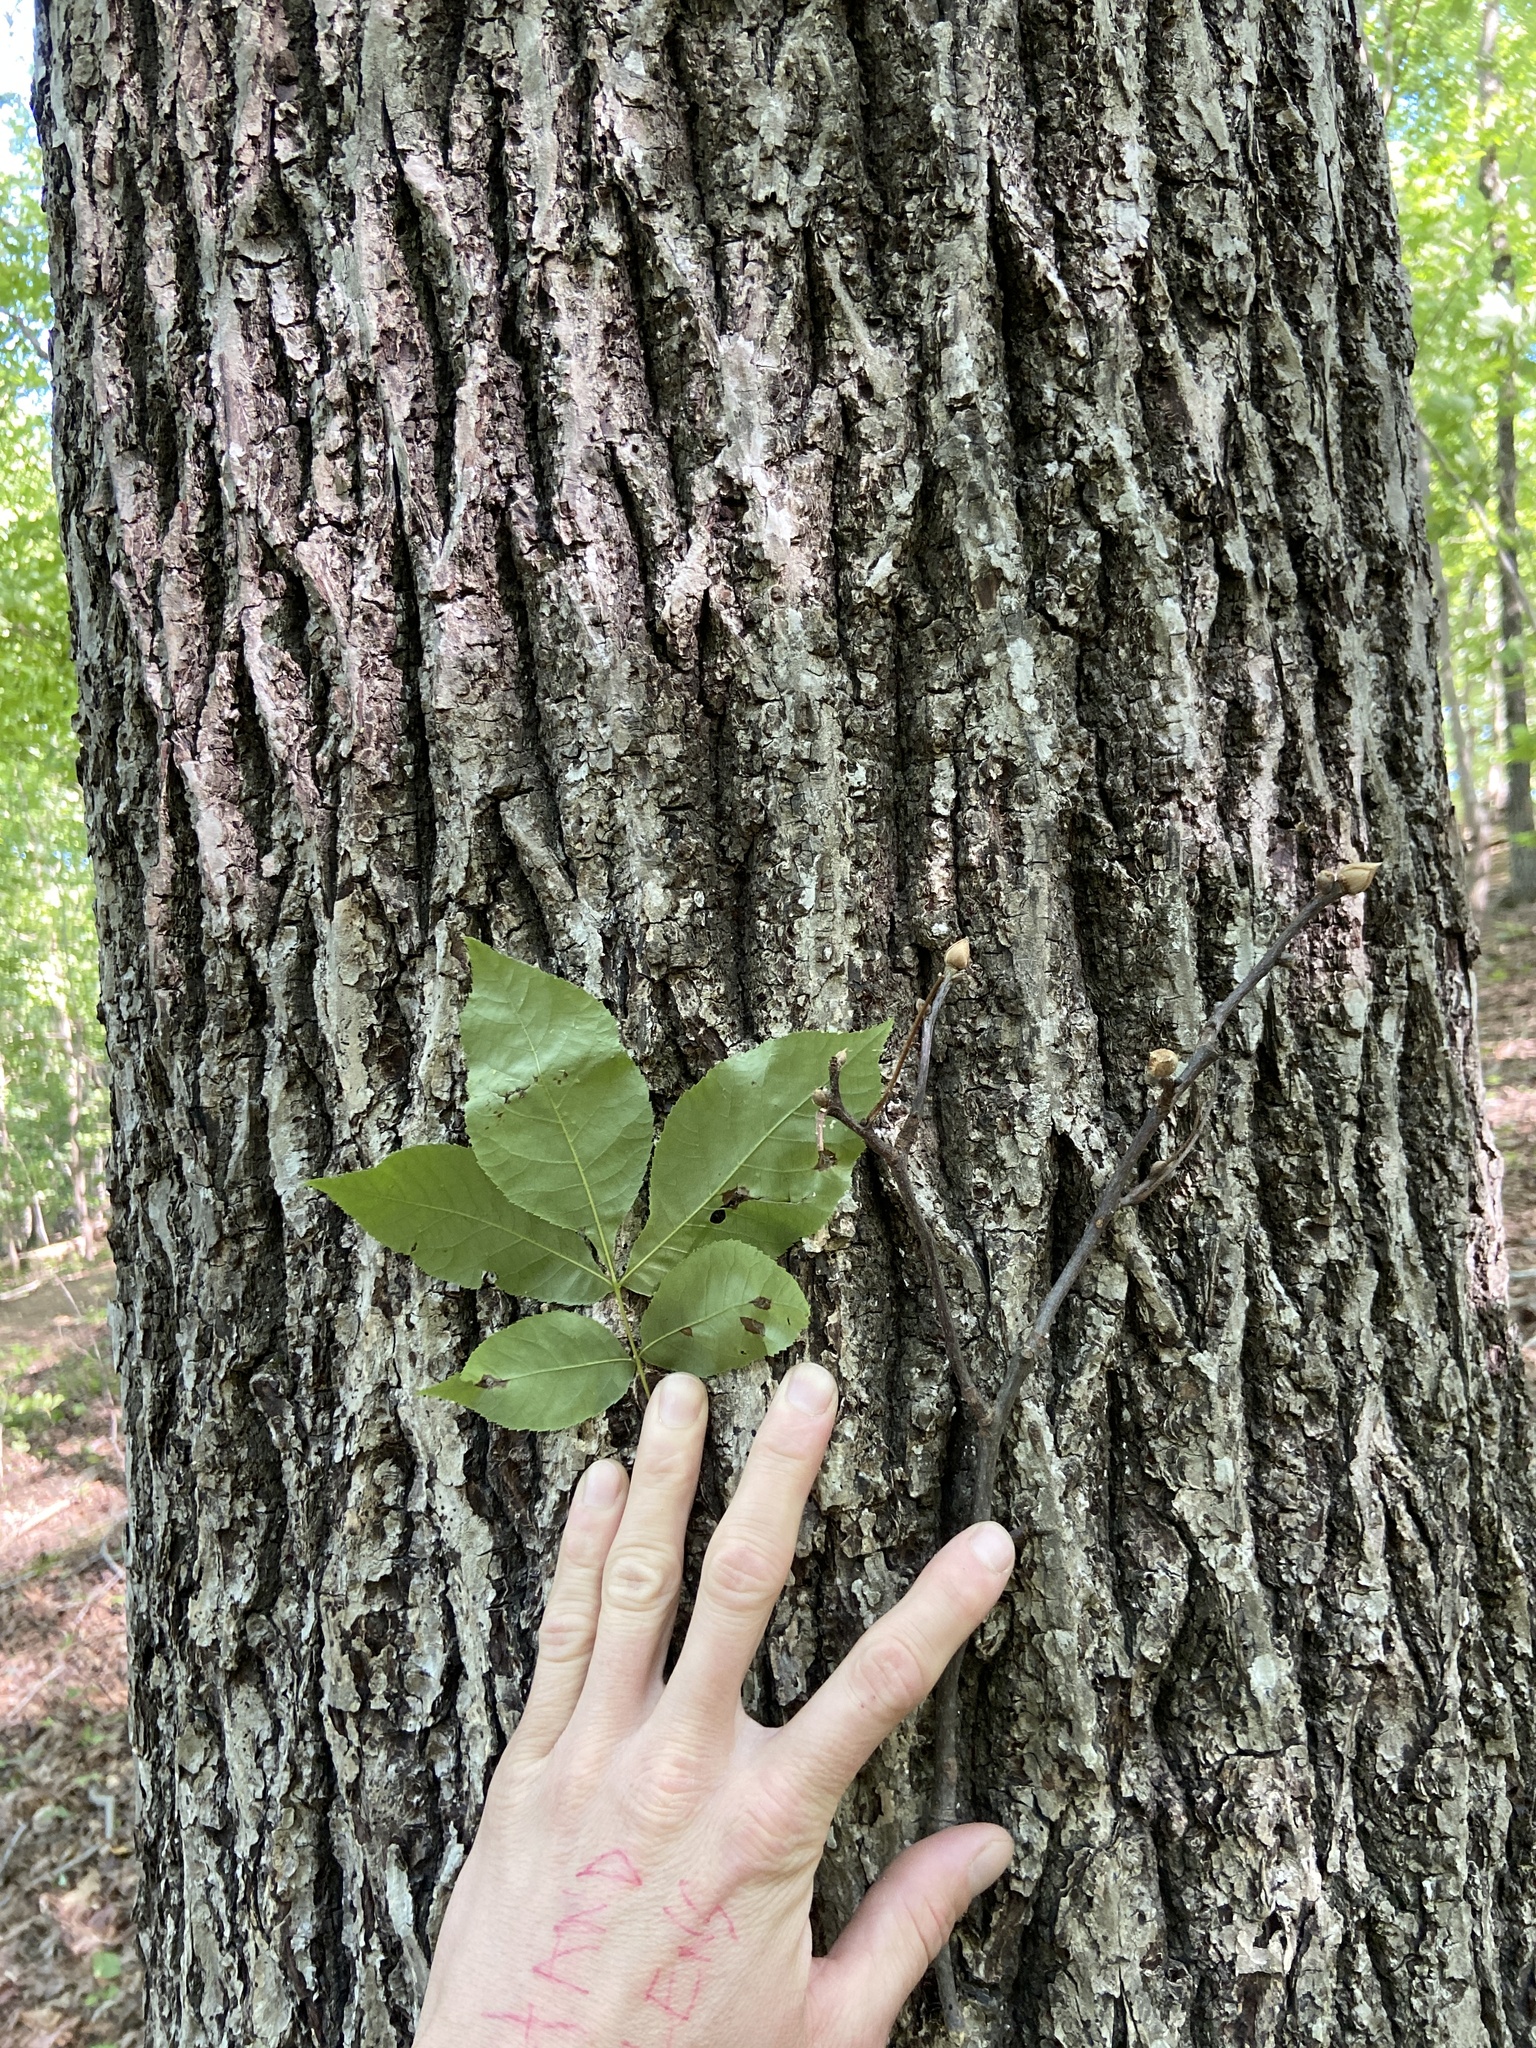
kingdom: Plantae
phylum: Tracheophyta
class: Magnoliopsida
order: Fagales
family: Juglandaceae
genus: Carya
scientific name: Carya alba
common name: Mockernut hickory
